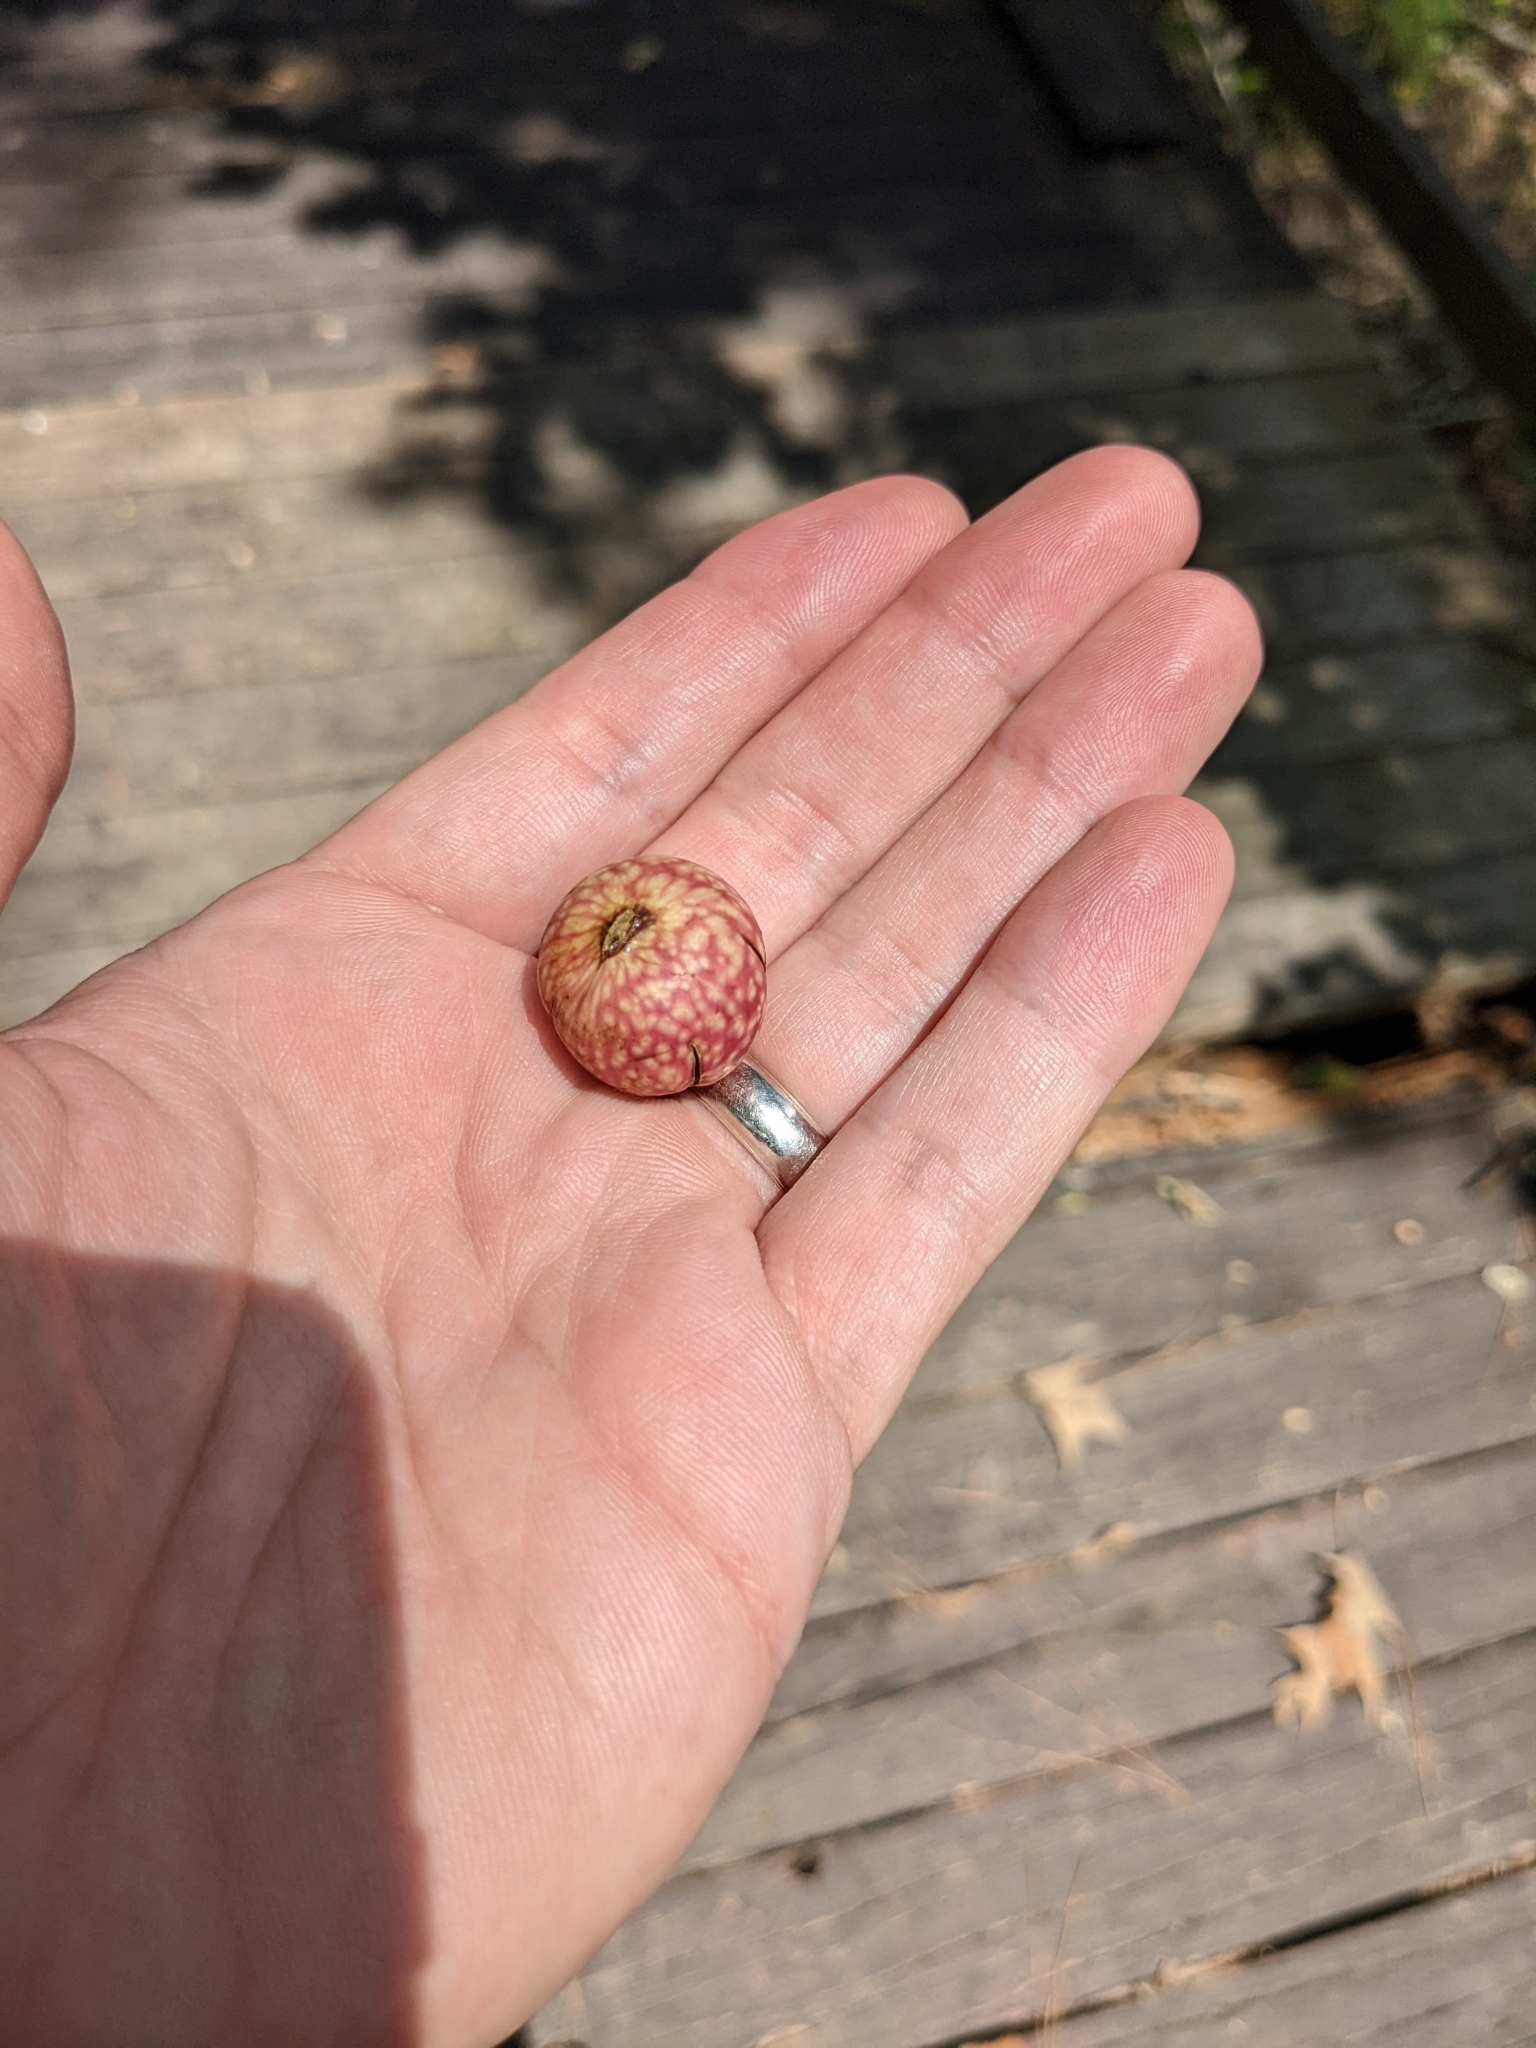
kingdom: Animalia
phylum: Arthropoda
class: Insecta
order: Hymenoptera
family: Cynipidae
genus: Amphibolips
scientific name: Amphibolips
